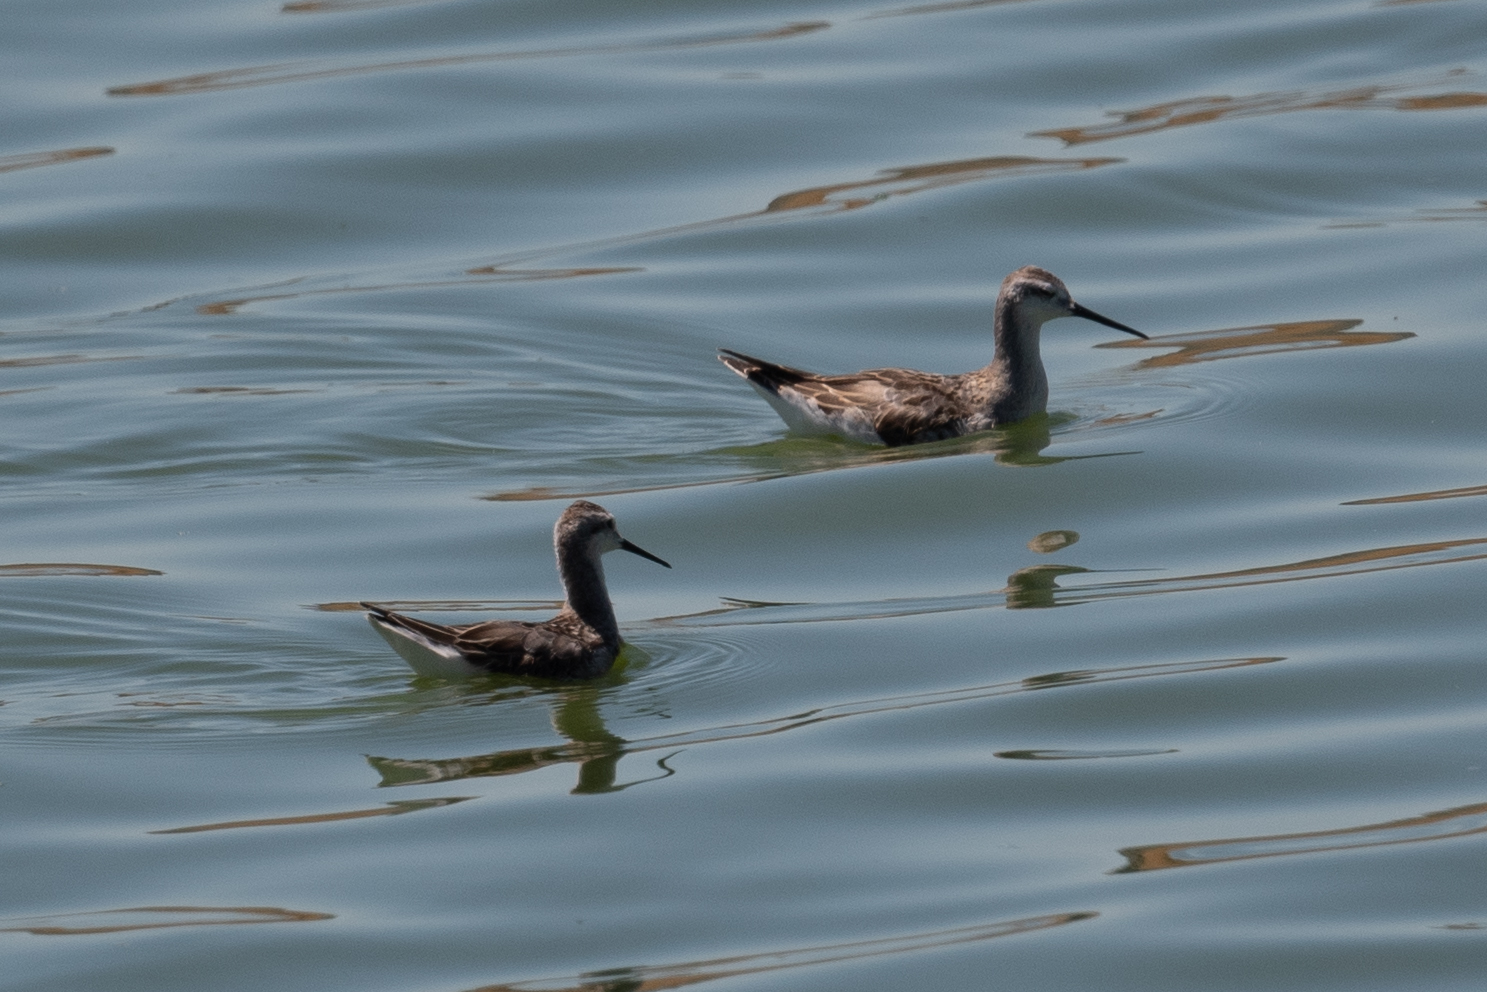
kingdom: Animalia
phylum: Chordata
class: Aves
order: Charadriiformes
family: Scolopacidae
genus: Phalaropus
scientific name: Phalaropus tricolor
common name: Wilson's phalarope
